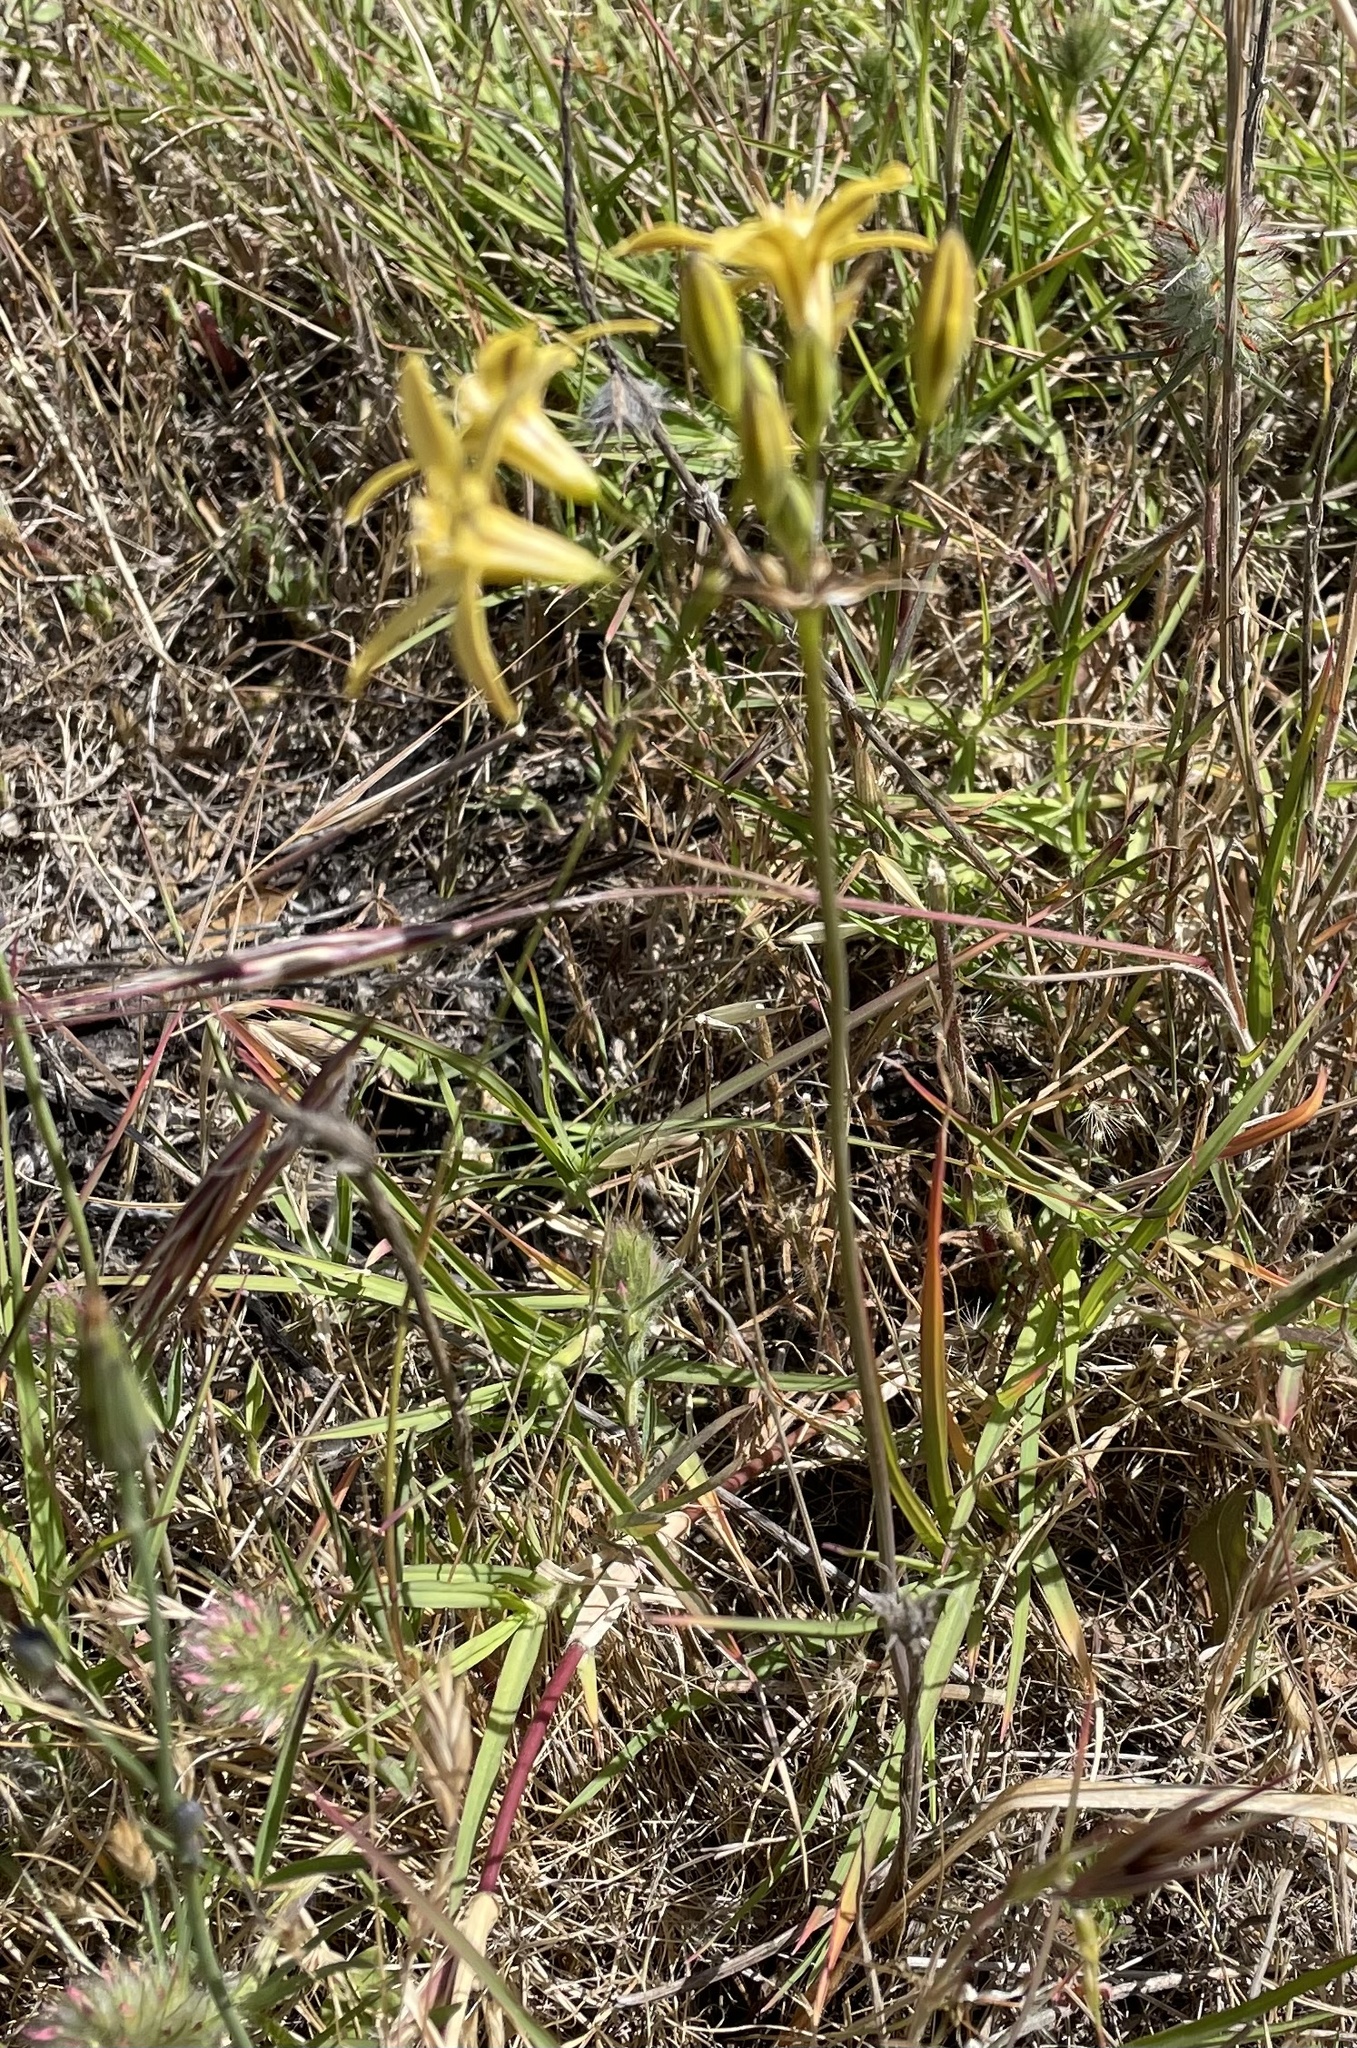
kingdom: Plantae
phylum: Tracheophyta
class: Liliopsida
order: Asparagales
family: Asparagaceae
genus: Triteleia
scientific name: Triteleia ixioides
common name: Yellow-brodiaea
